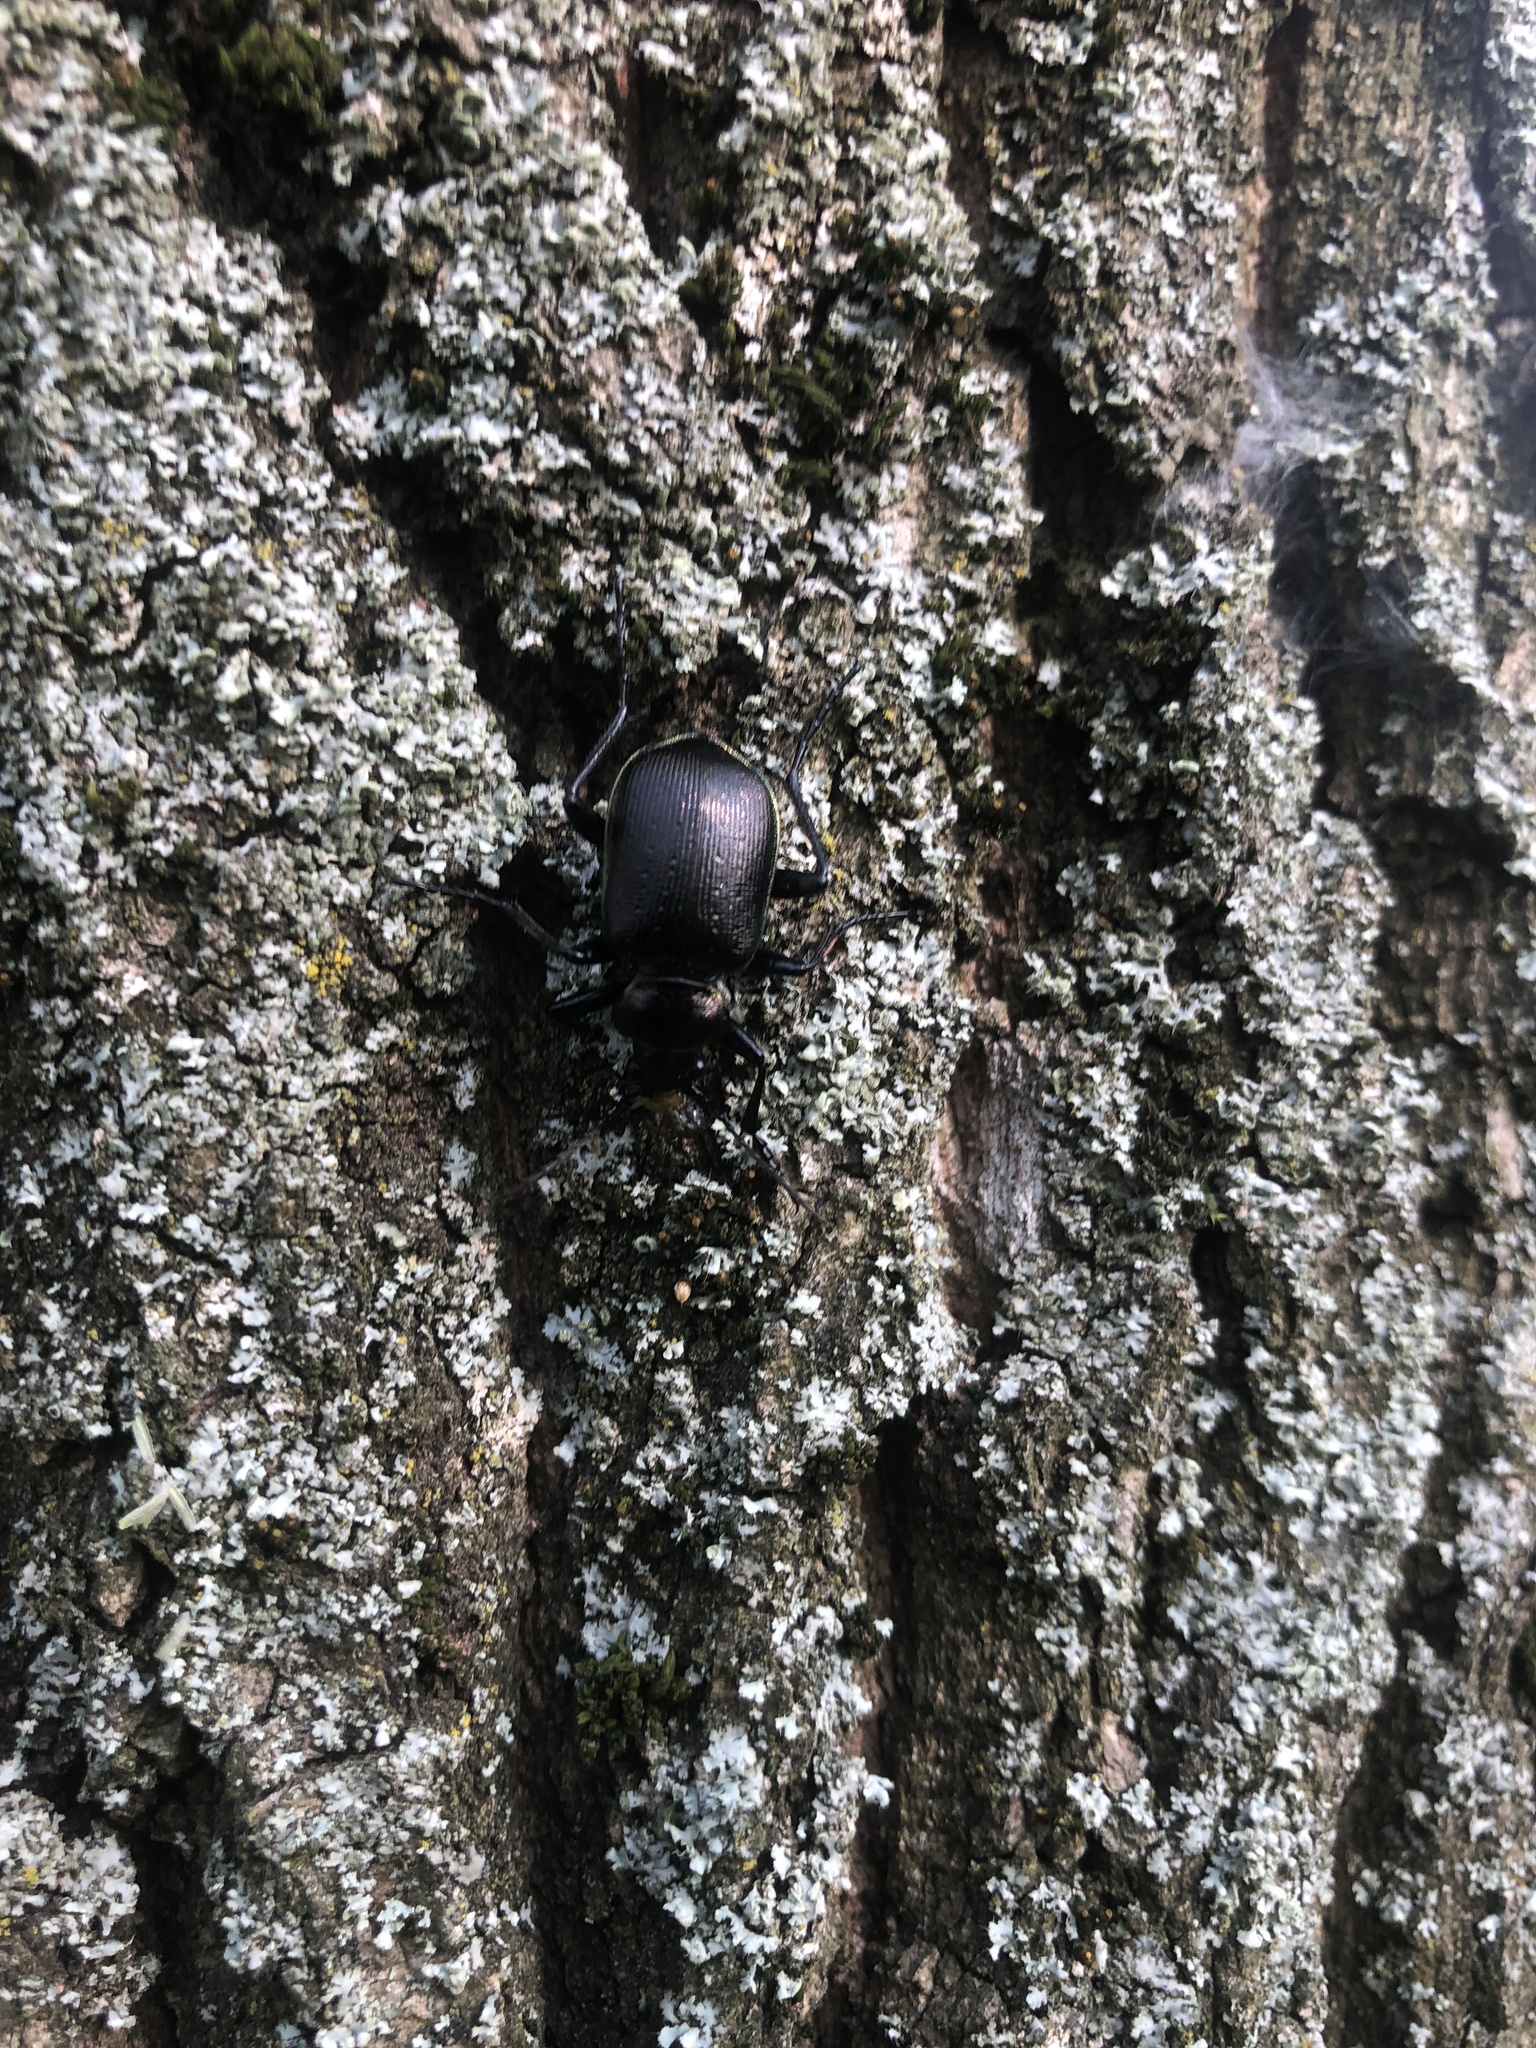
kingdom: Animalia
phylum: Arthropoda
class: Insecta
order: Coleoptera
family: Carabidae
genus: Calosoma
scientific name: Calosoma inquisitor
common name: Caterpillar-hunter
